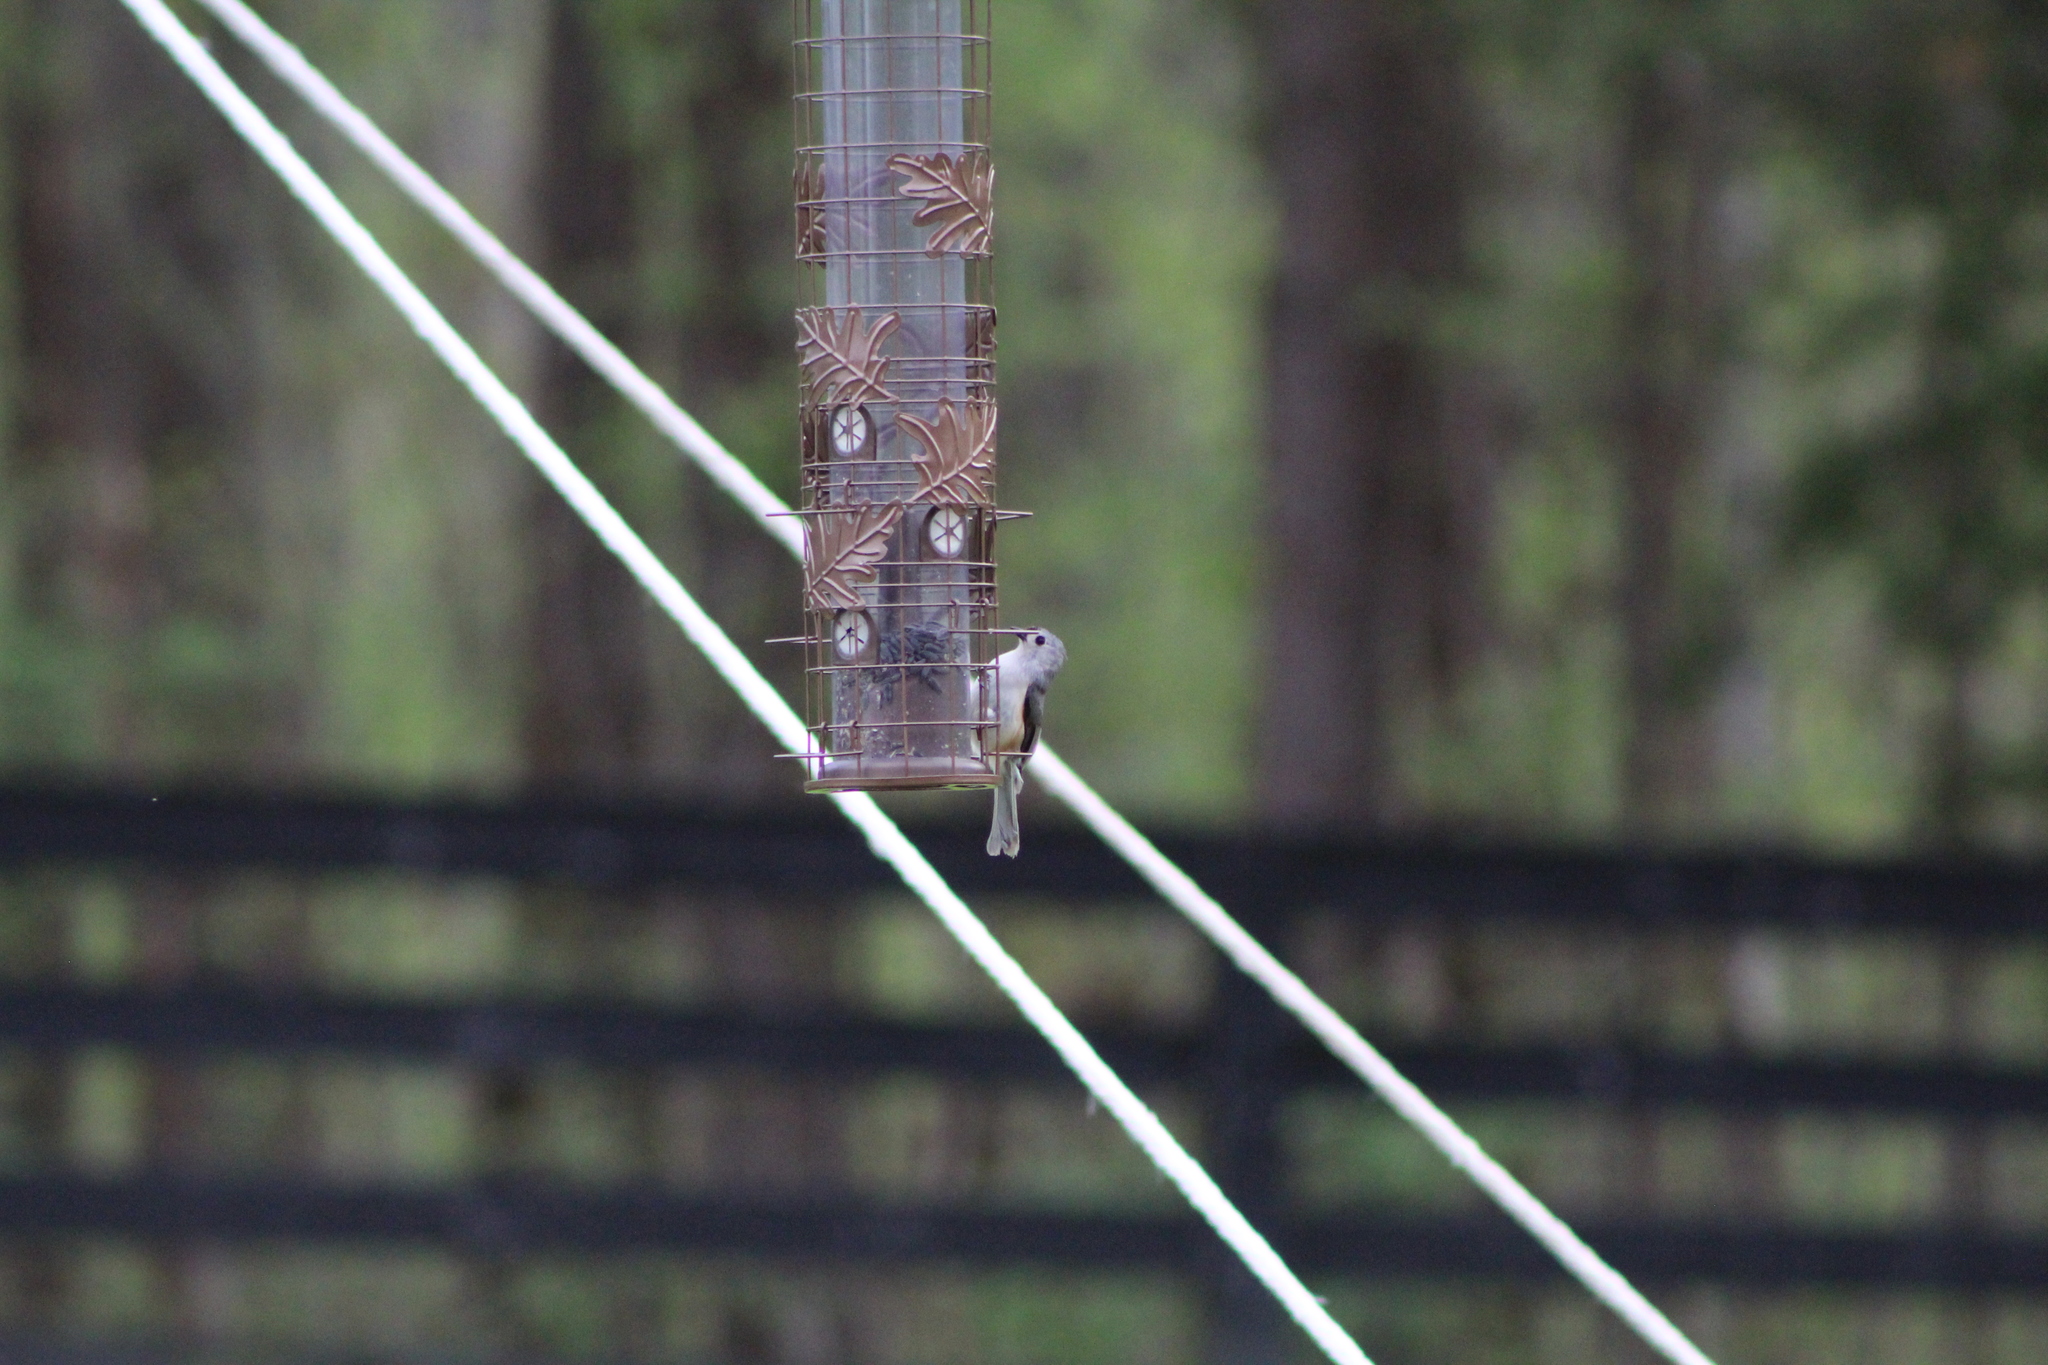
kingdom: Animalia
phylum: Chordata
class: Aves
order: Passeriformes
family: Paridae
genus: Baeolophus
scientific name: Baeolophus bicolor
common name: Tufted titmouse
